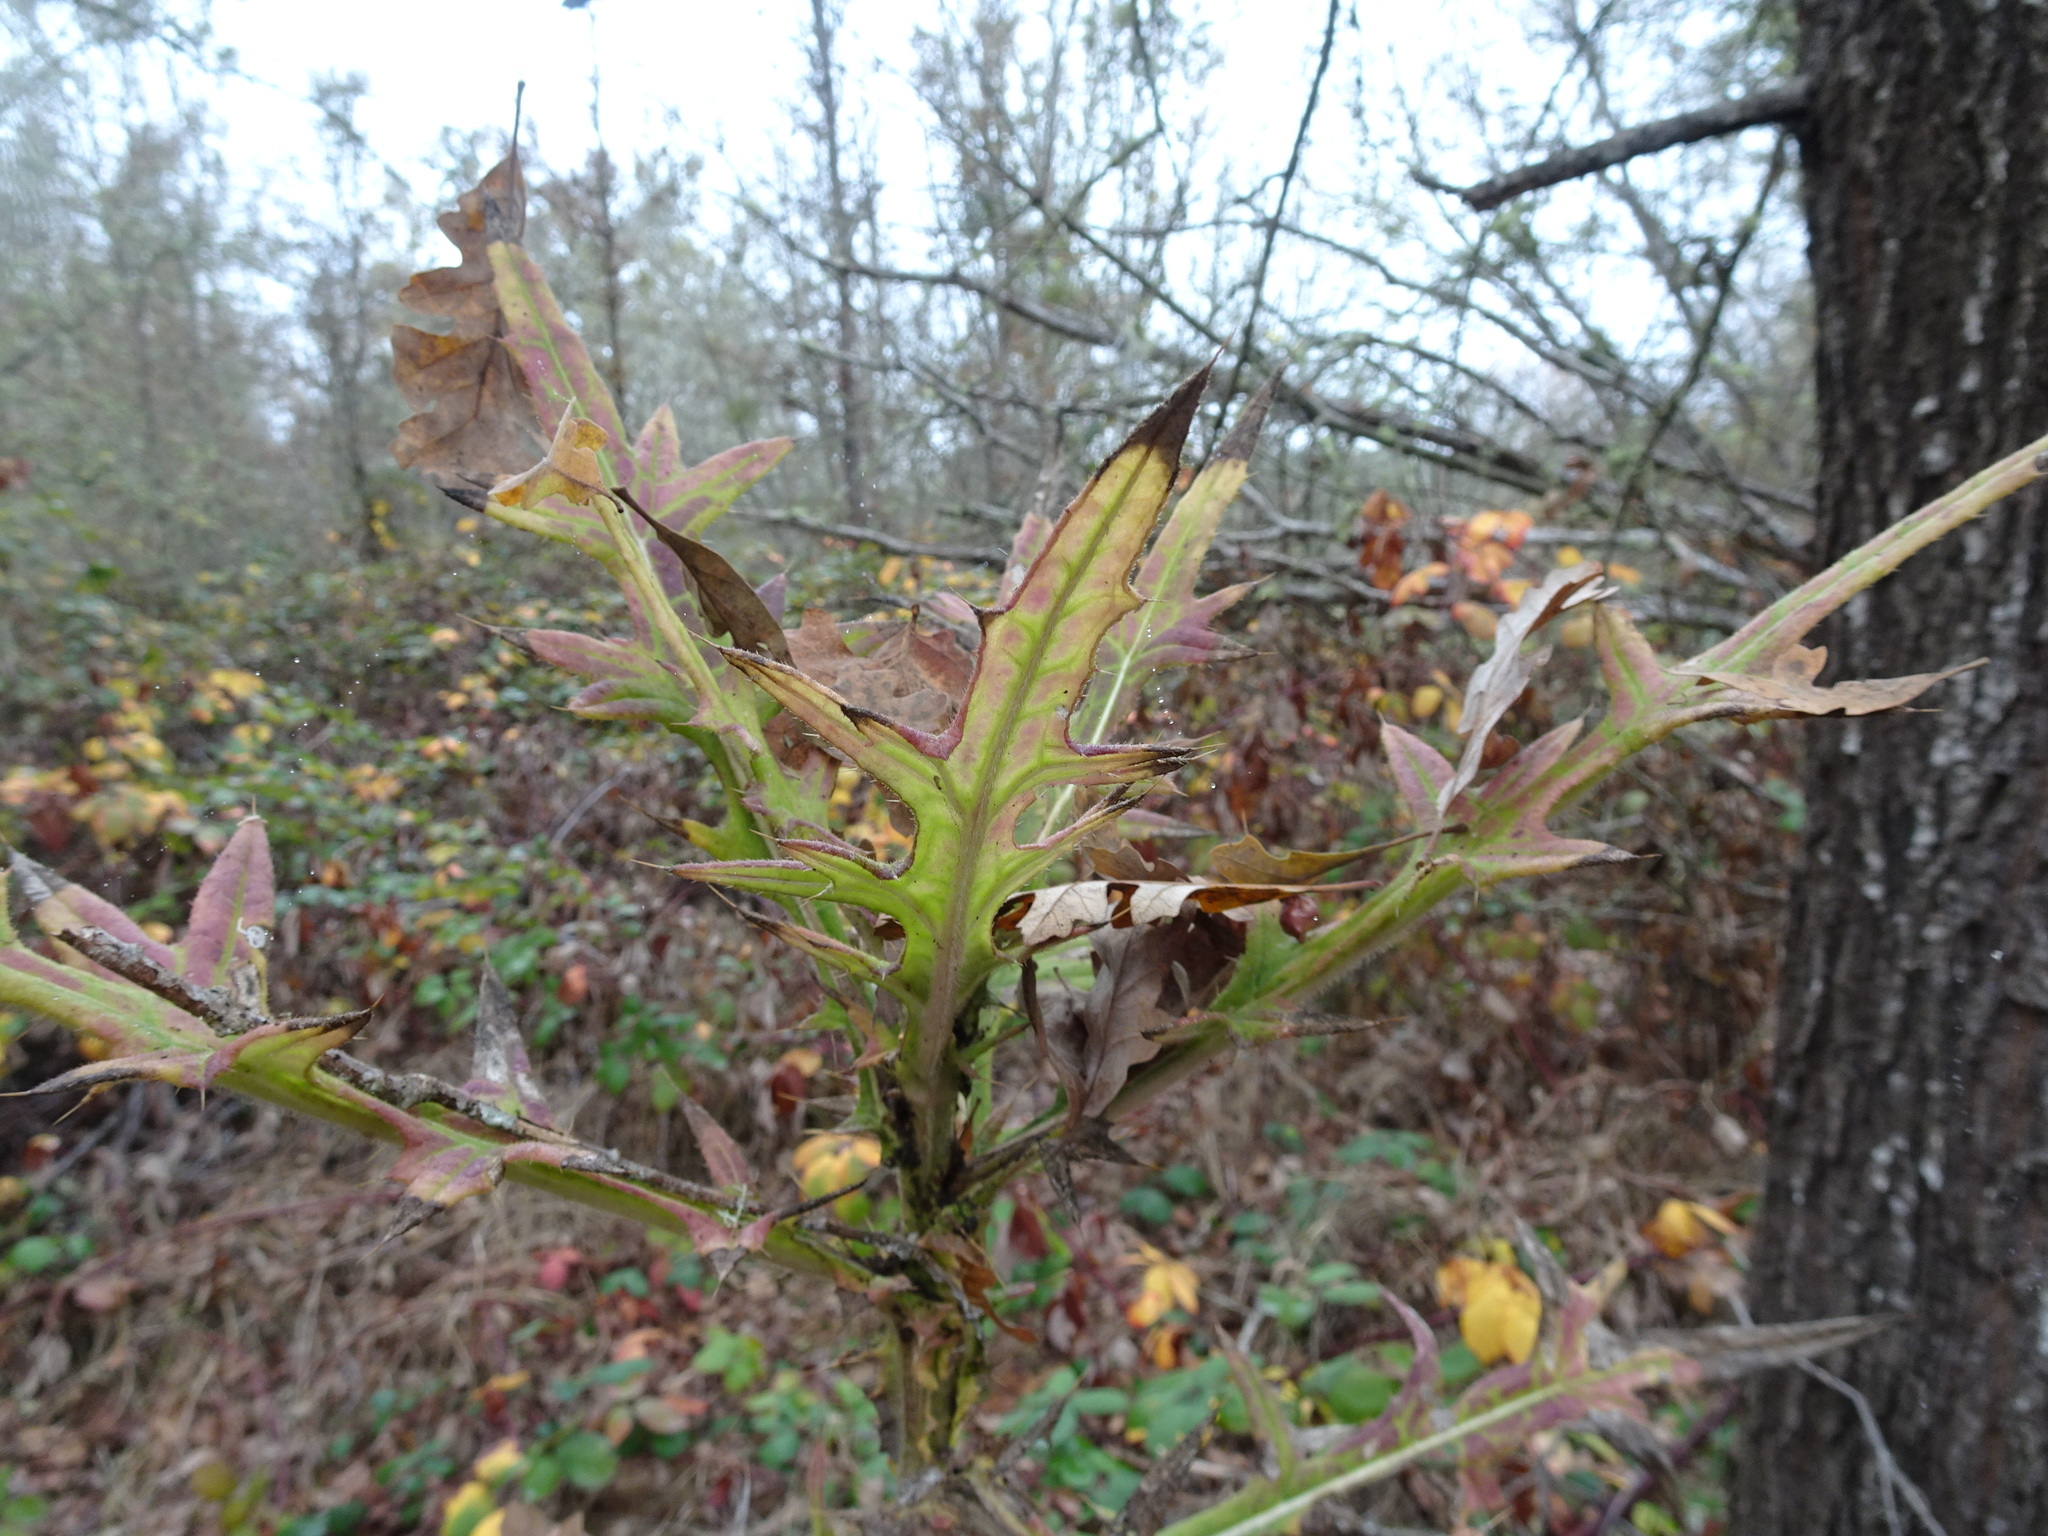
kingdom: Plantae
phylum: Tracheophyta
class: Magnoliopsida
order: Asterales
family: Asteraceae
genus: Cirsium
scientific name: Cirsium vulgare
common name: Bull thistle
